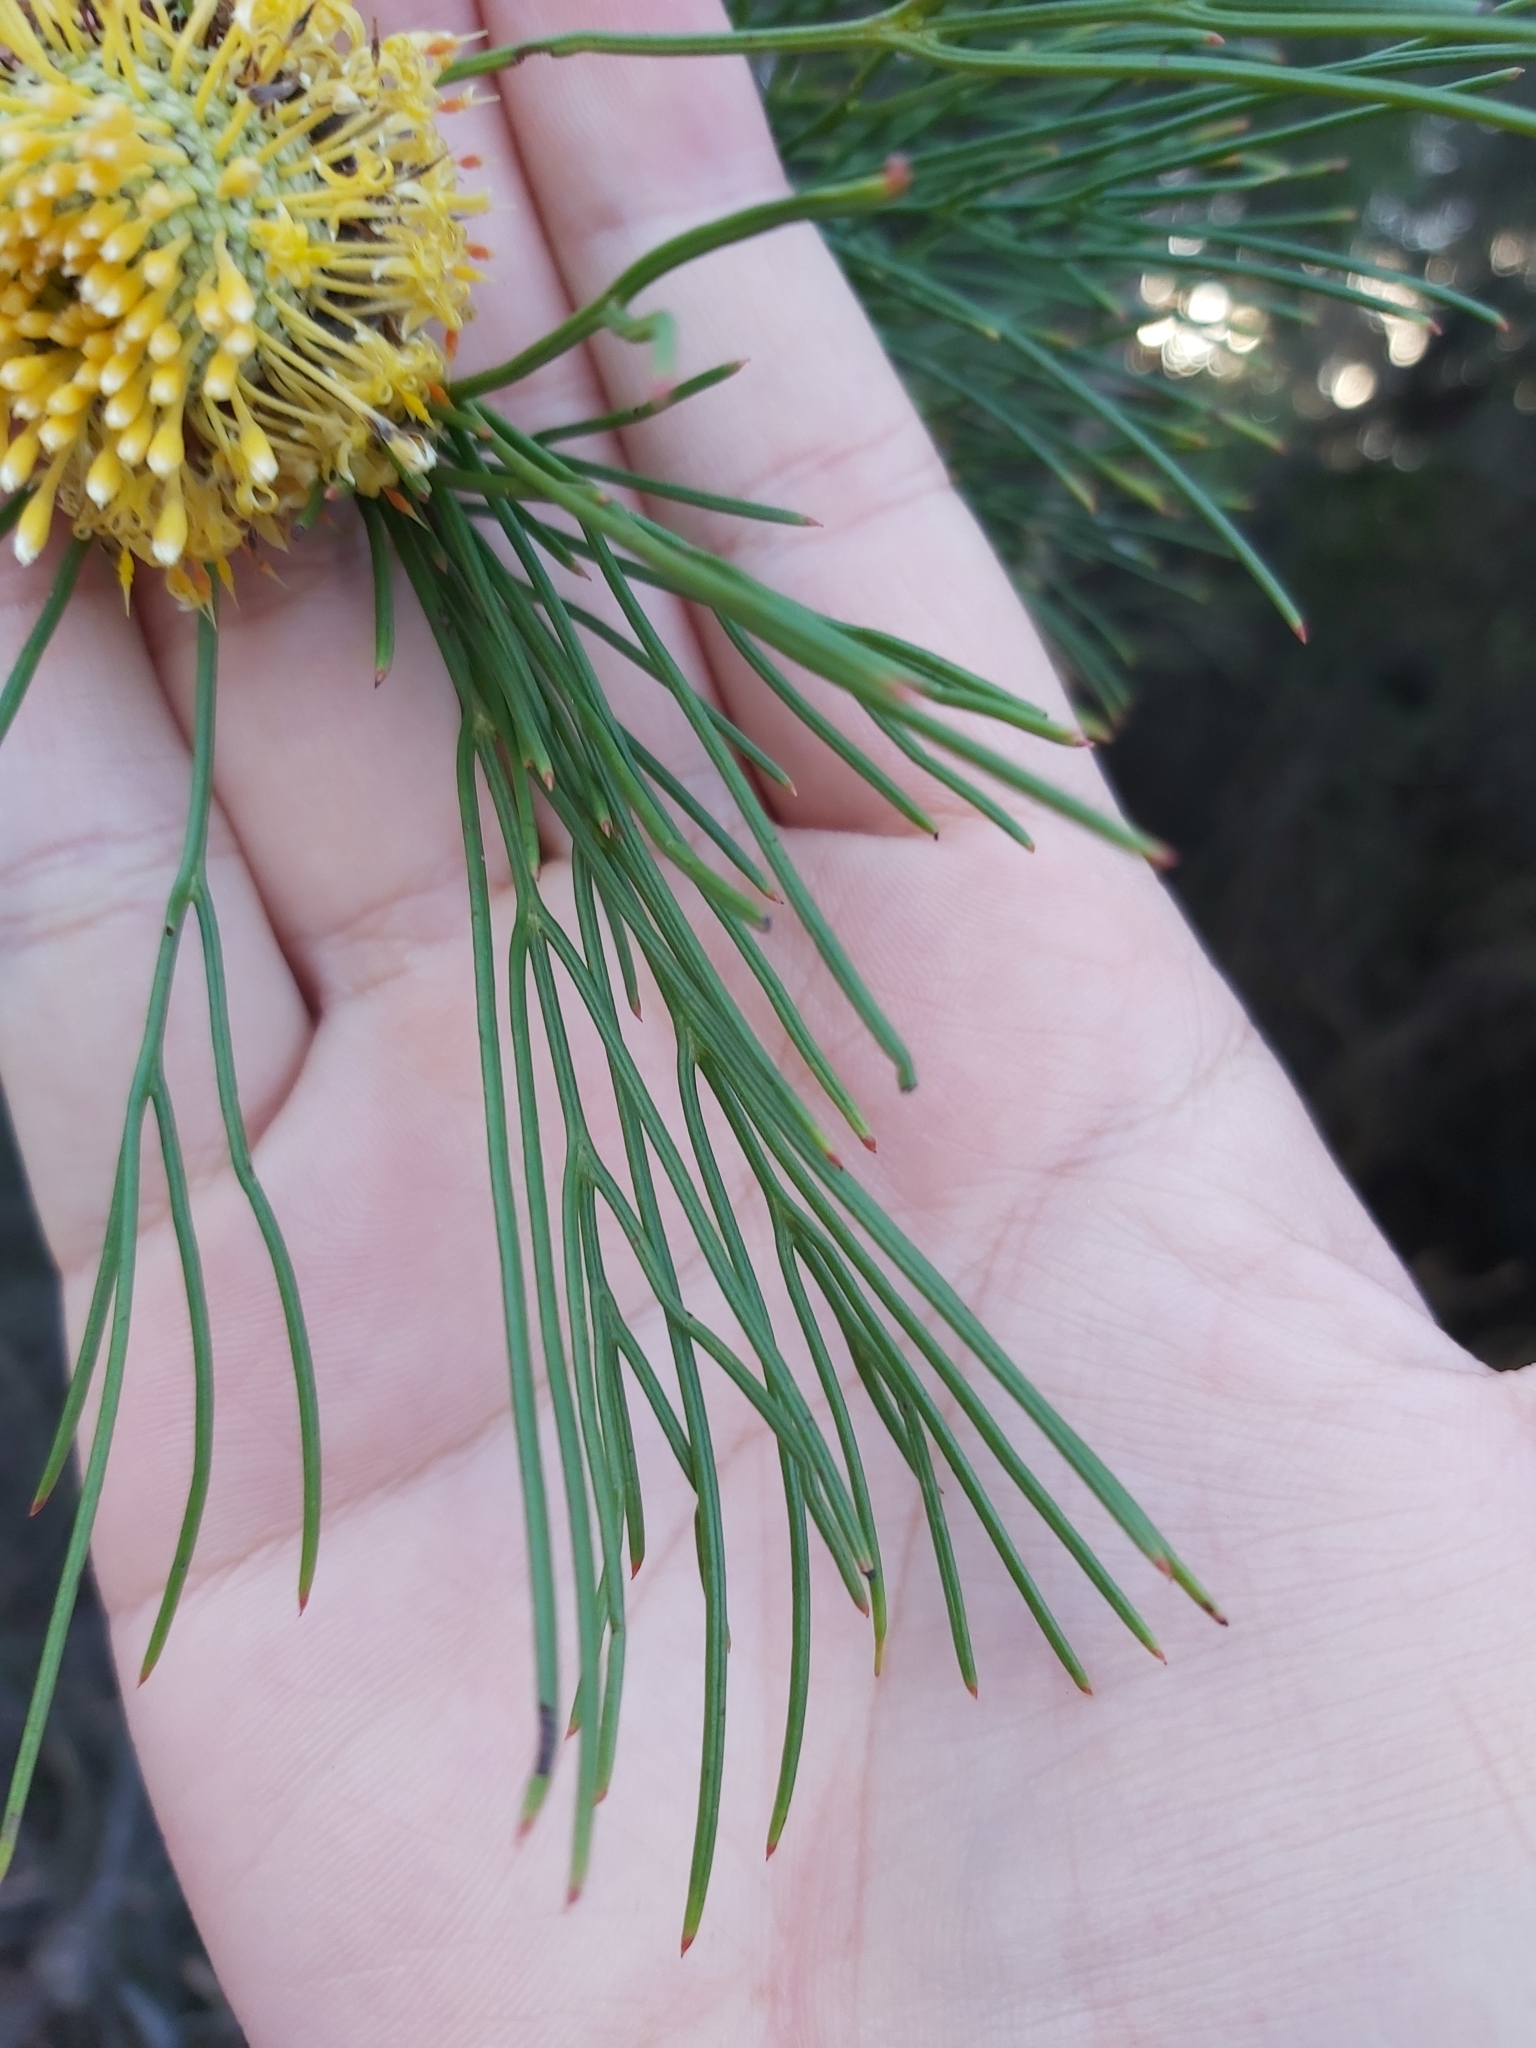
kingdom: Plantae
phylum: Tracheophyta
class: Magnoliopsida
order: Proteales
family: Proteaceae
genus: Isopogon
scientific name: Isopogon anethifolius
